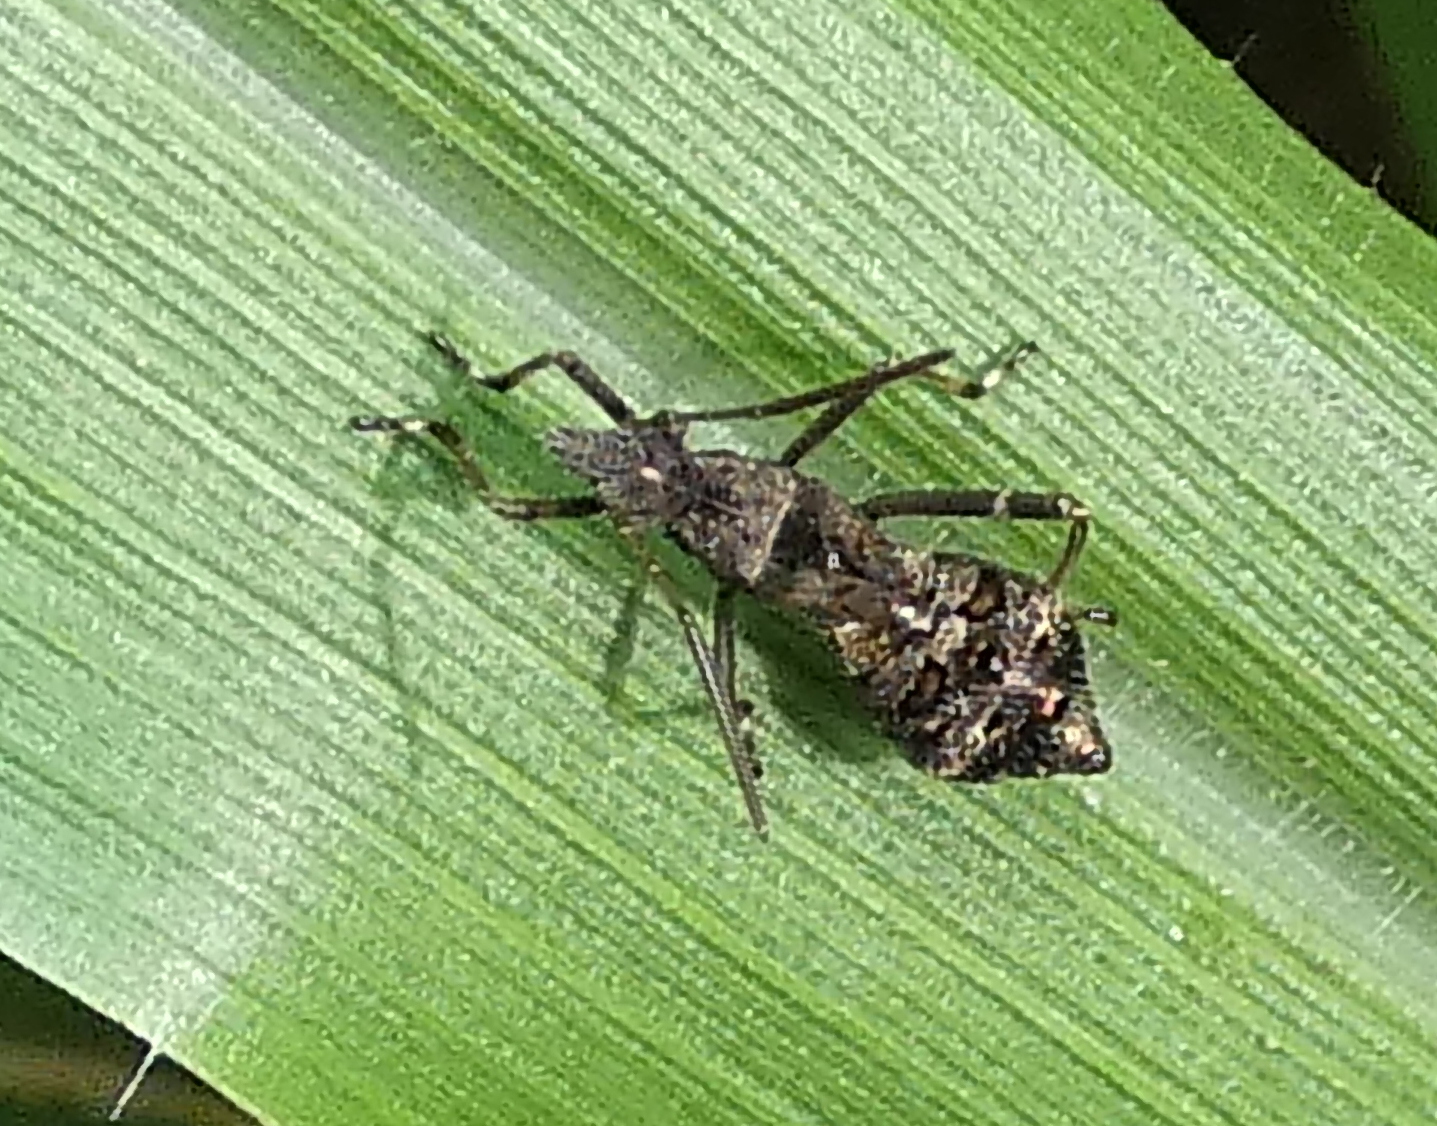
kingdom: Animalia
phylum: Arthropoda
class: Insecta
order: Hemiptera
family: Alydidae
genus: Neomegalotomus
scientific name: Neomegalotomus parvus
